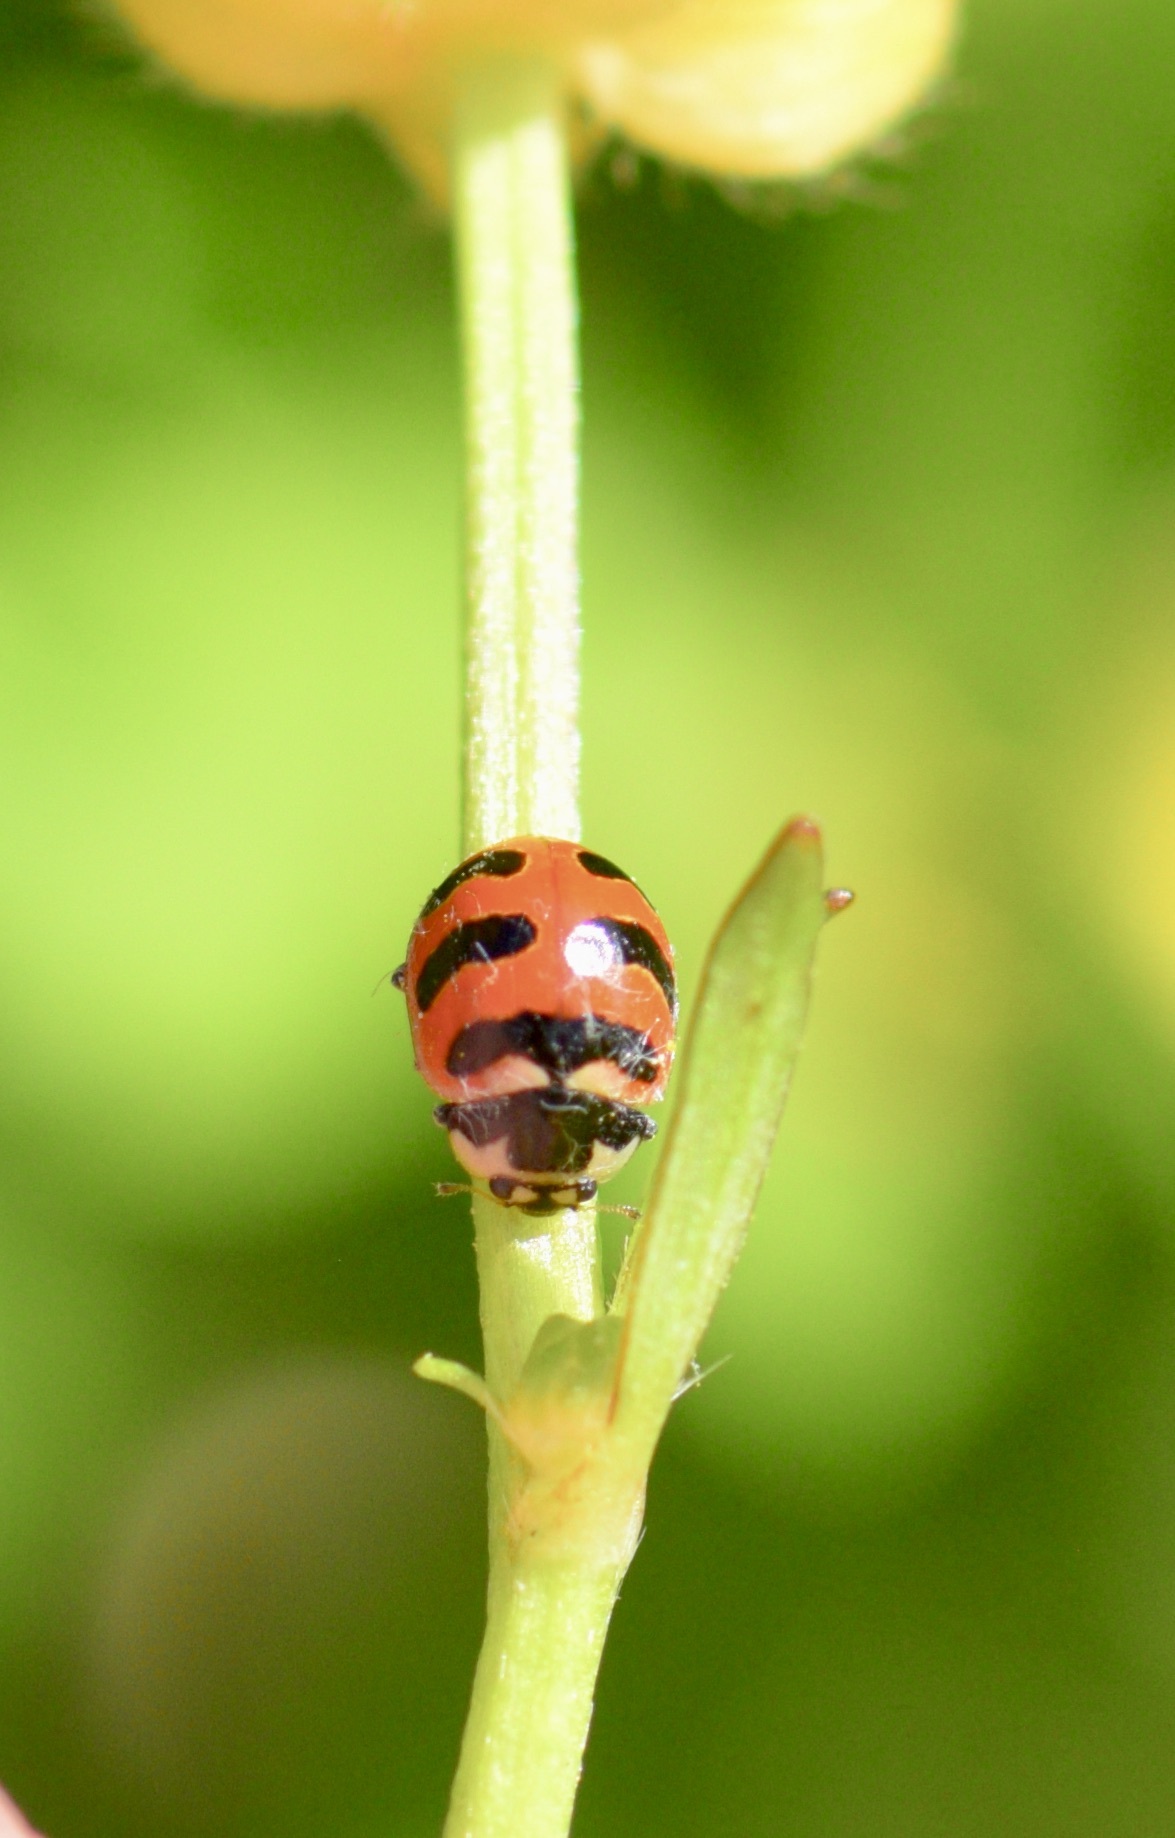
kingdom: Animalia
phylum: Arthropoda
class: Insecta
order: Coleoptera
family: Coccinellidae
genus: Coccinella
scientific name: Coccinella trifasciata
